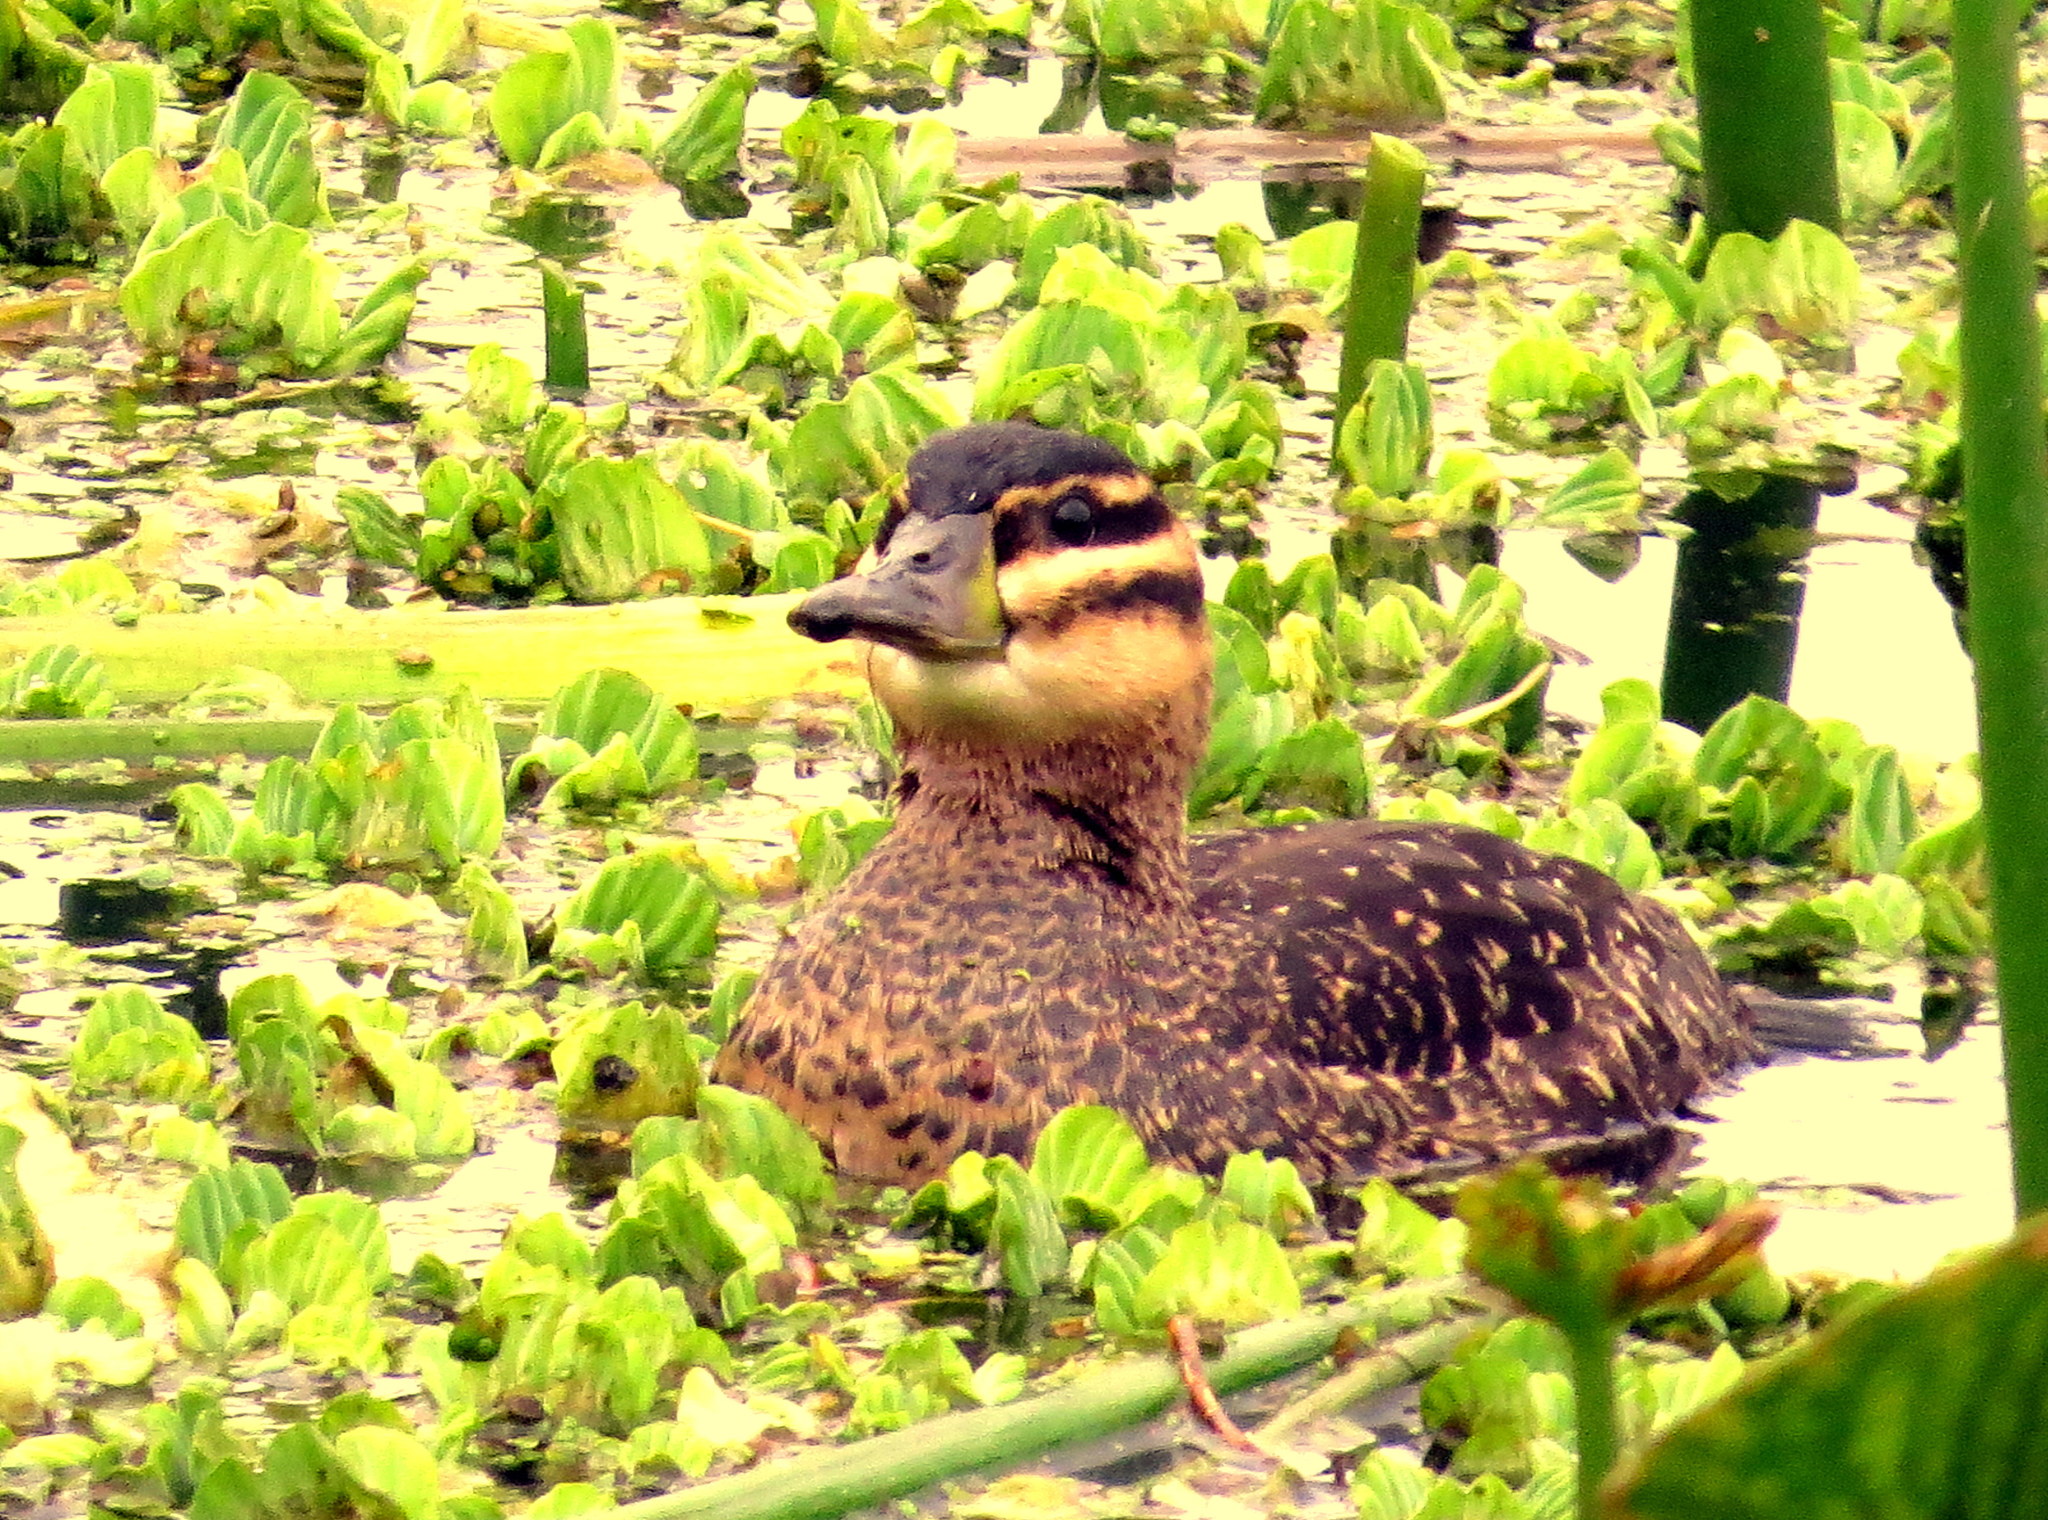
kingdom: Animalia
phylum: Chordata
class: Aves
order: Anseriformes
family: Anatidae
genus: Nomonyx
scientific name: Nomonyx dominicus
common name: Masked duck
